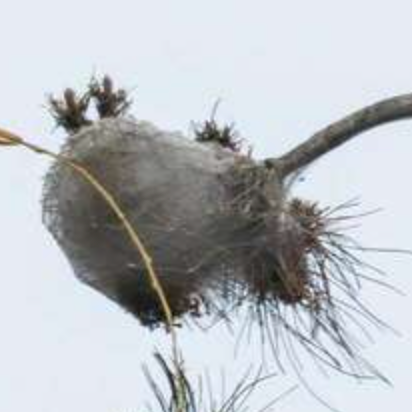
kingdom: Animalia
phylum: Arthropoda
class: Insecta
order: Lepidoptera
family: Notodontidae
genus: Thaumetopoea
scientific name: Thaumetopoea pityocampa
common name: Pine processionary
